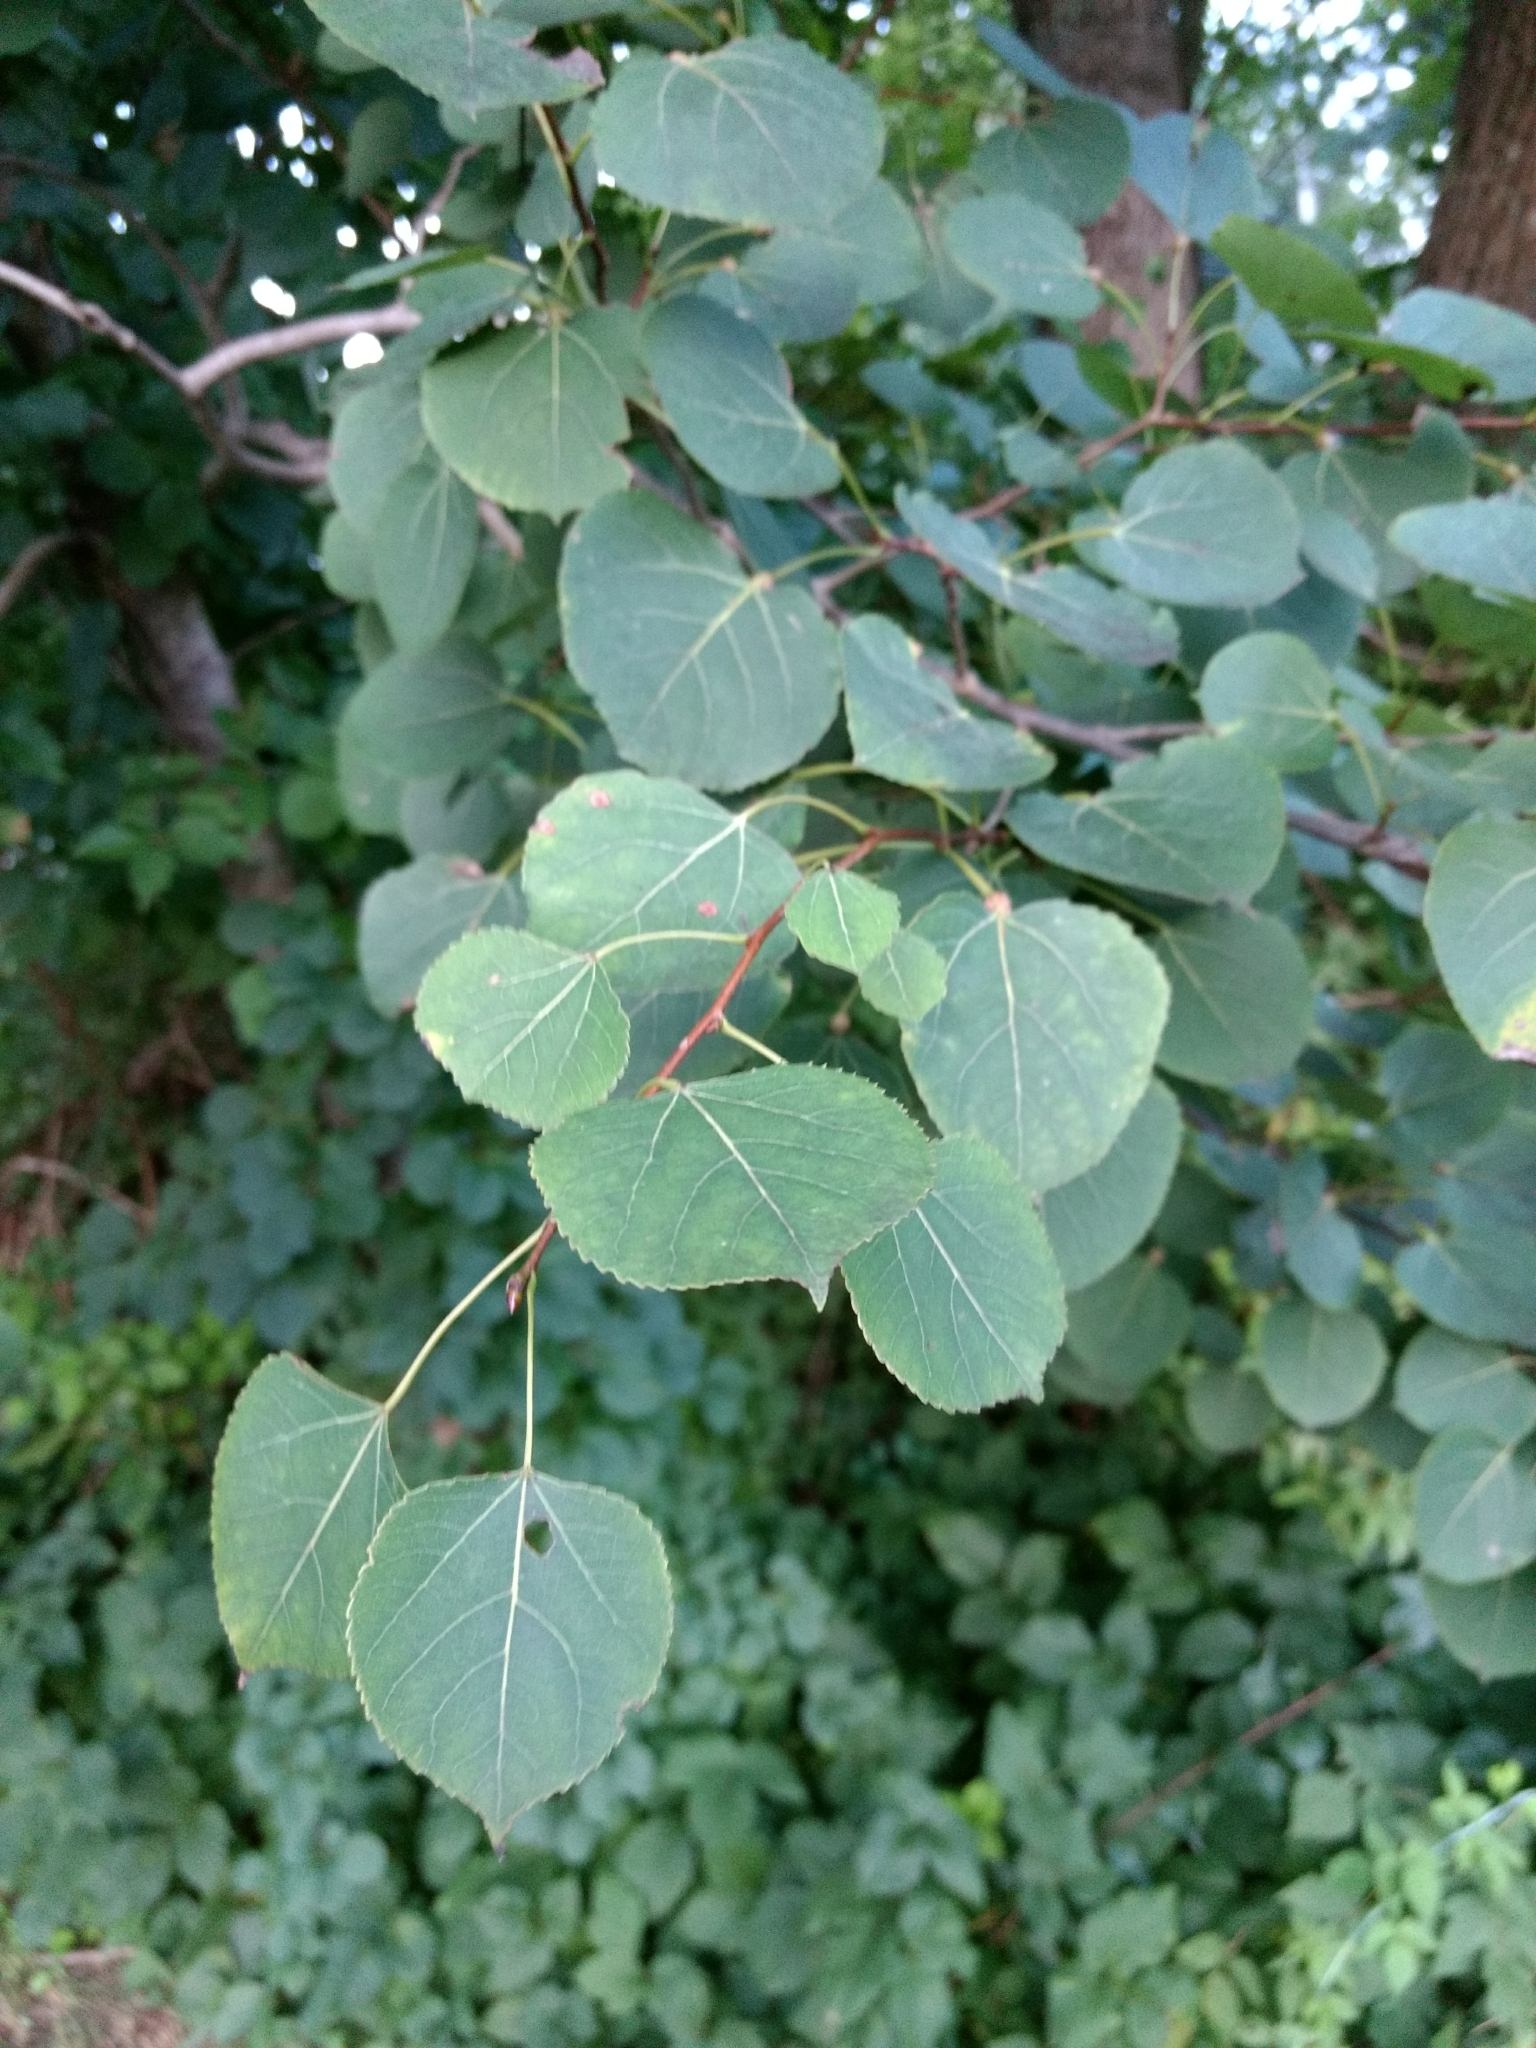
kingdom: Plantae
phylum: Tracheophyta
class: Magnoliopsida
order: Malpighiales
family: Salicaceae
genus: Populus
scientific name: Populus tremuloides
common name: Quaking aspen
